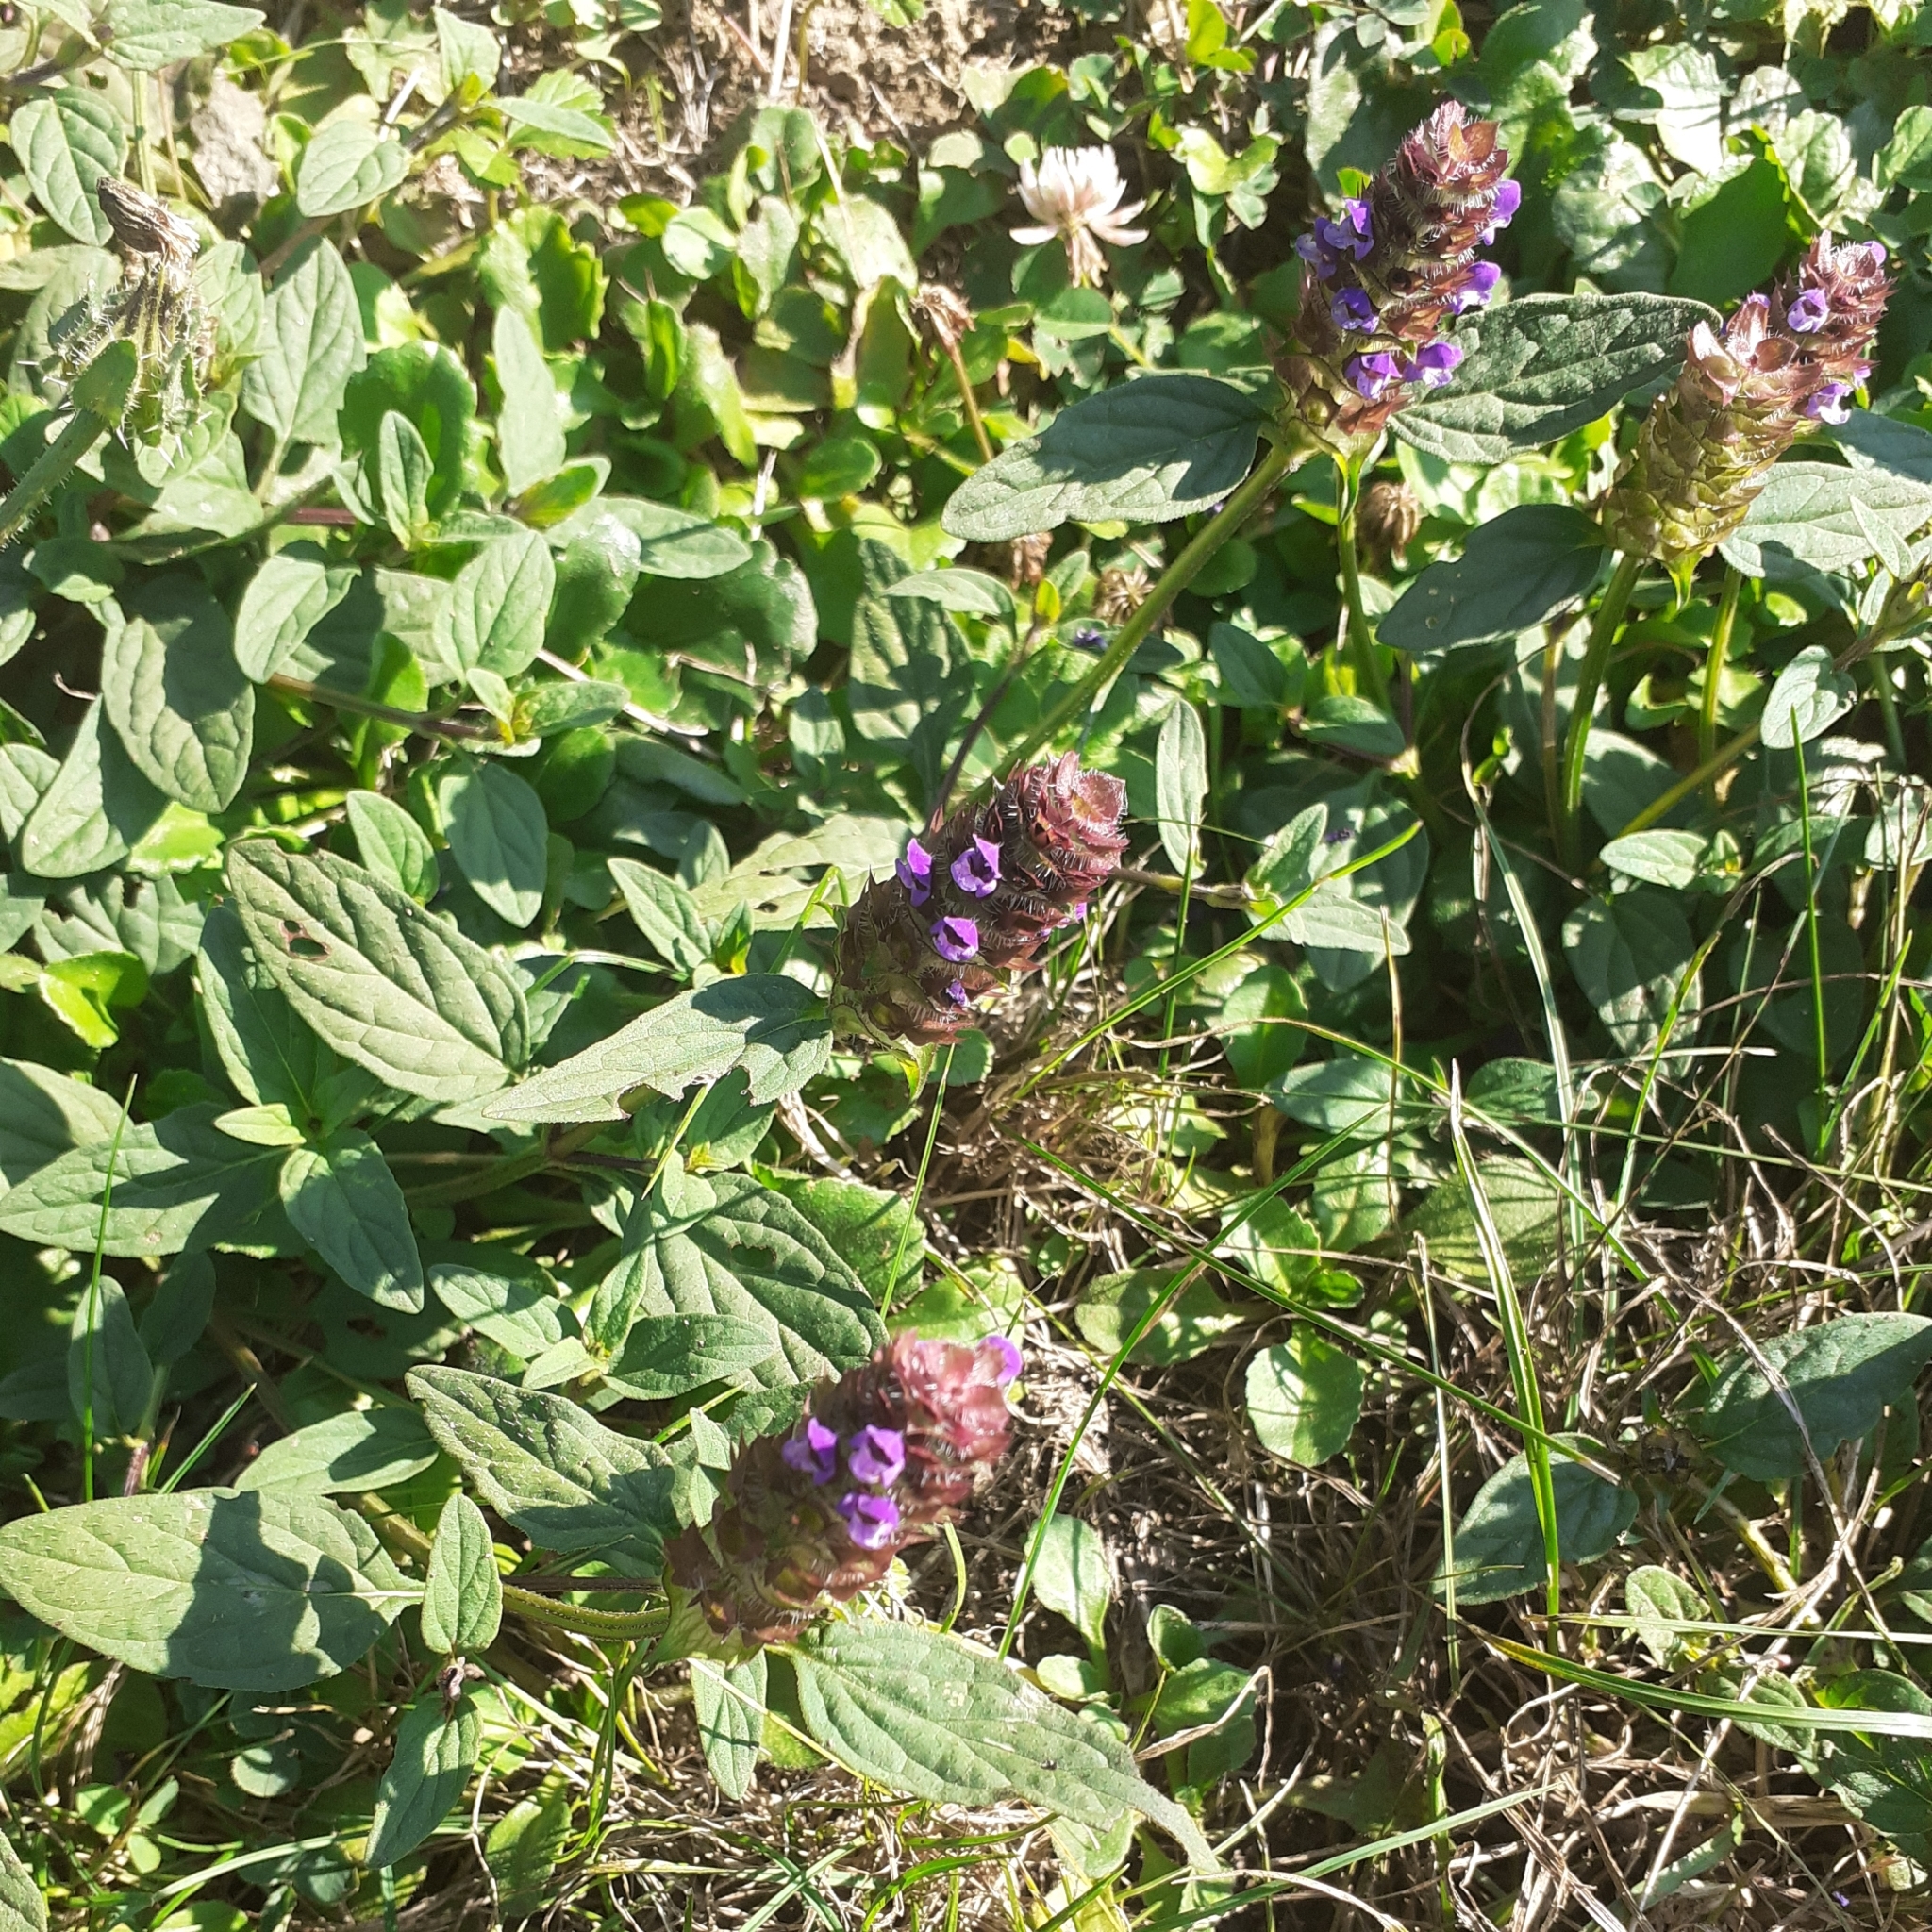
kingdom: Plantae
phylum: Tracheophyta
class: Magnoliopsida
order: Lamiales
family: Lamiaceae
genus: Prunella
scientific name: Prunella vulgaris
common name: Heal-all
